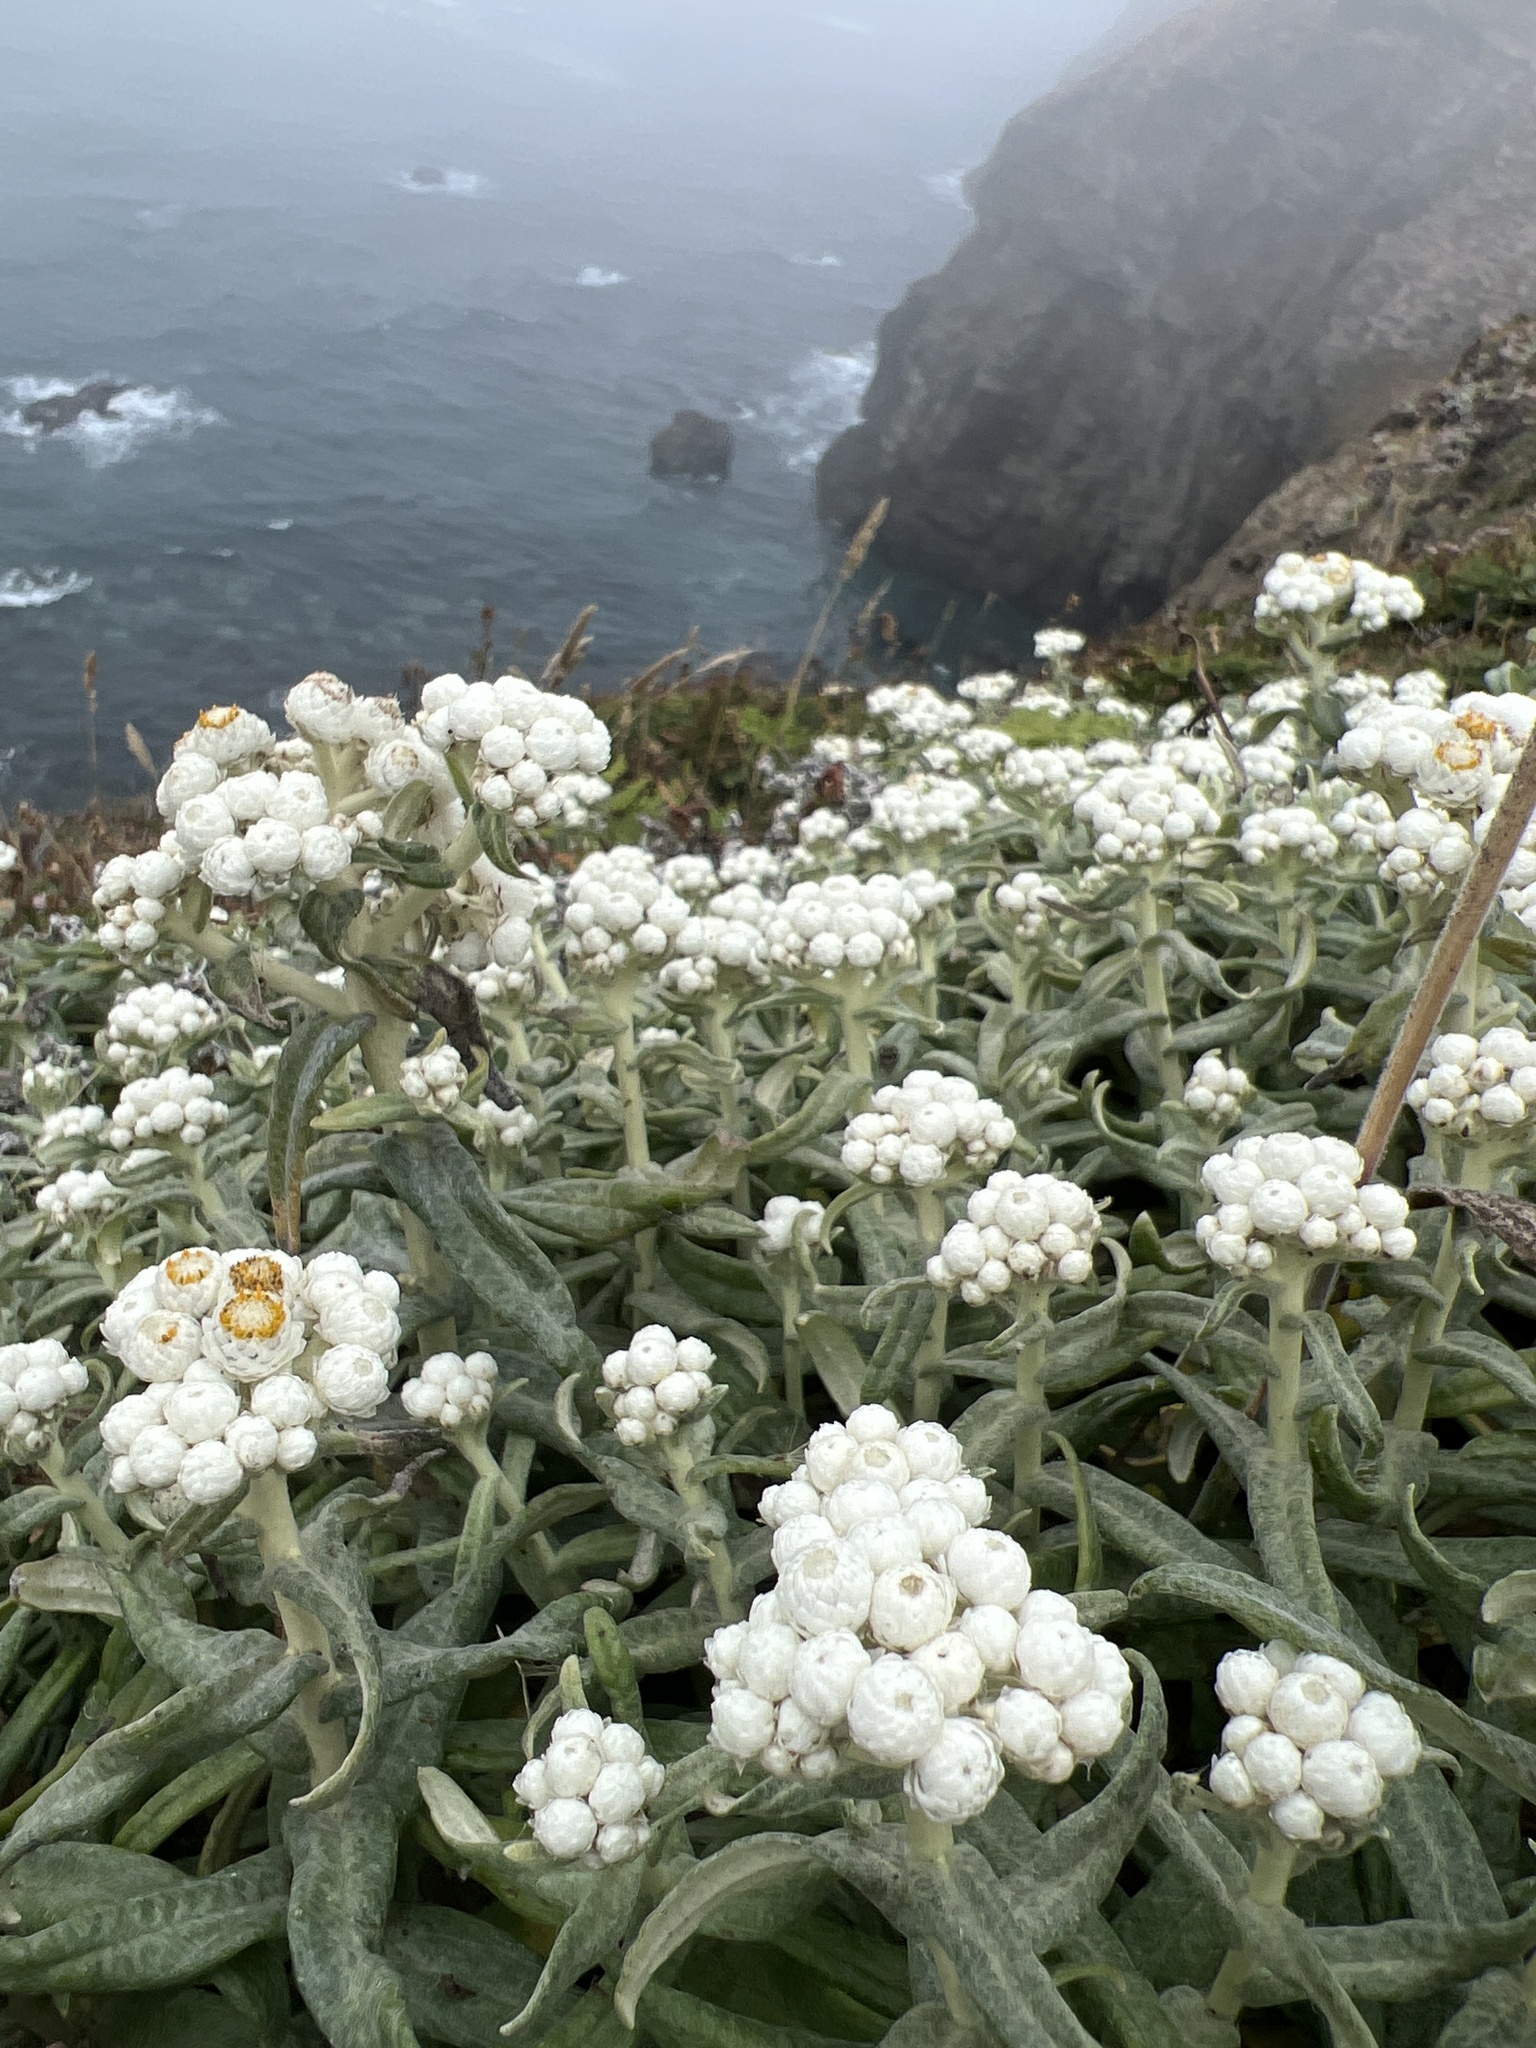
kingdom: Plantae
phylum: Tracheophyta
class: Magnoliopsida
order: Asterales
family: Asteraceae
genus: Anaphalis
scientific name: Anaphalis margaritacea
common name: Pearly everlasting
